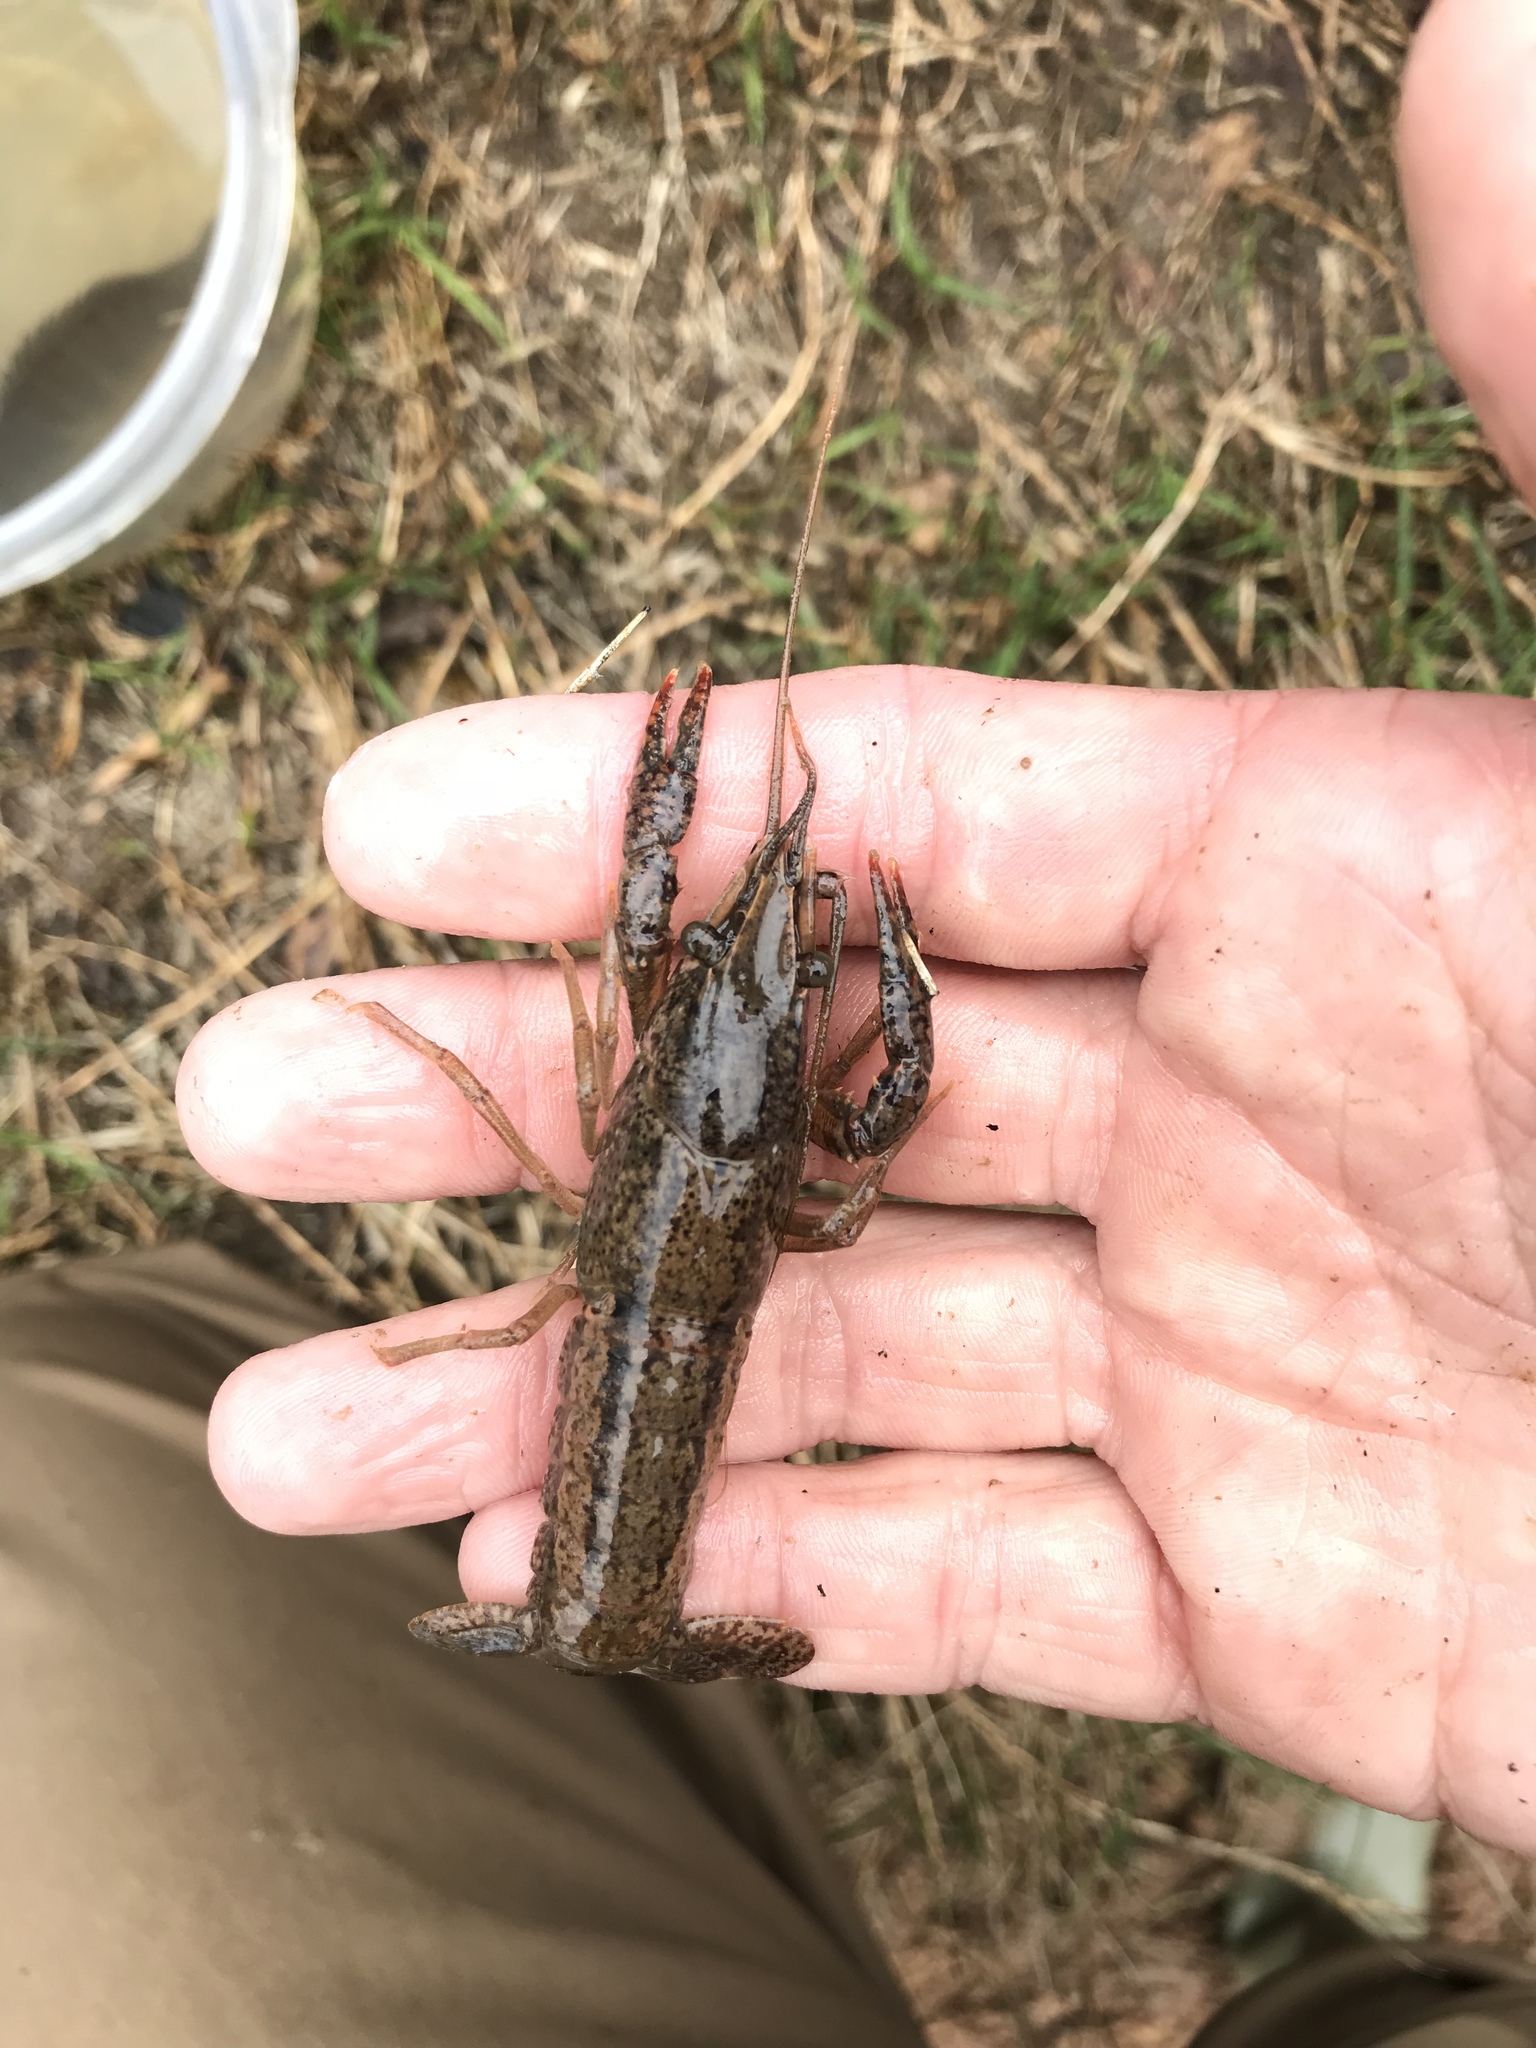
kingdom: Animalia
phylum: Arthropoda
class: Malacostraca
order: Decapoda
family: Cambaridae
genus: Procambarus
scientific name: Procambarus clarkii
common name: Red swamp crayfish
